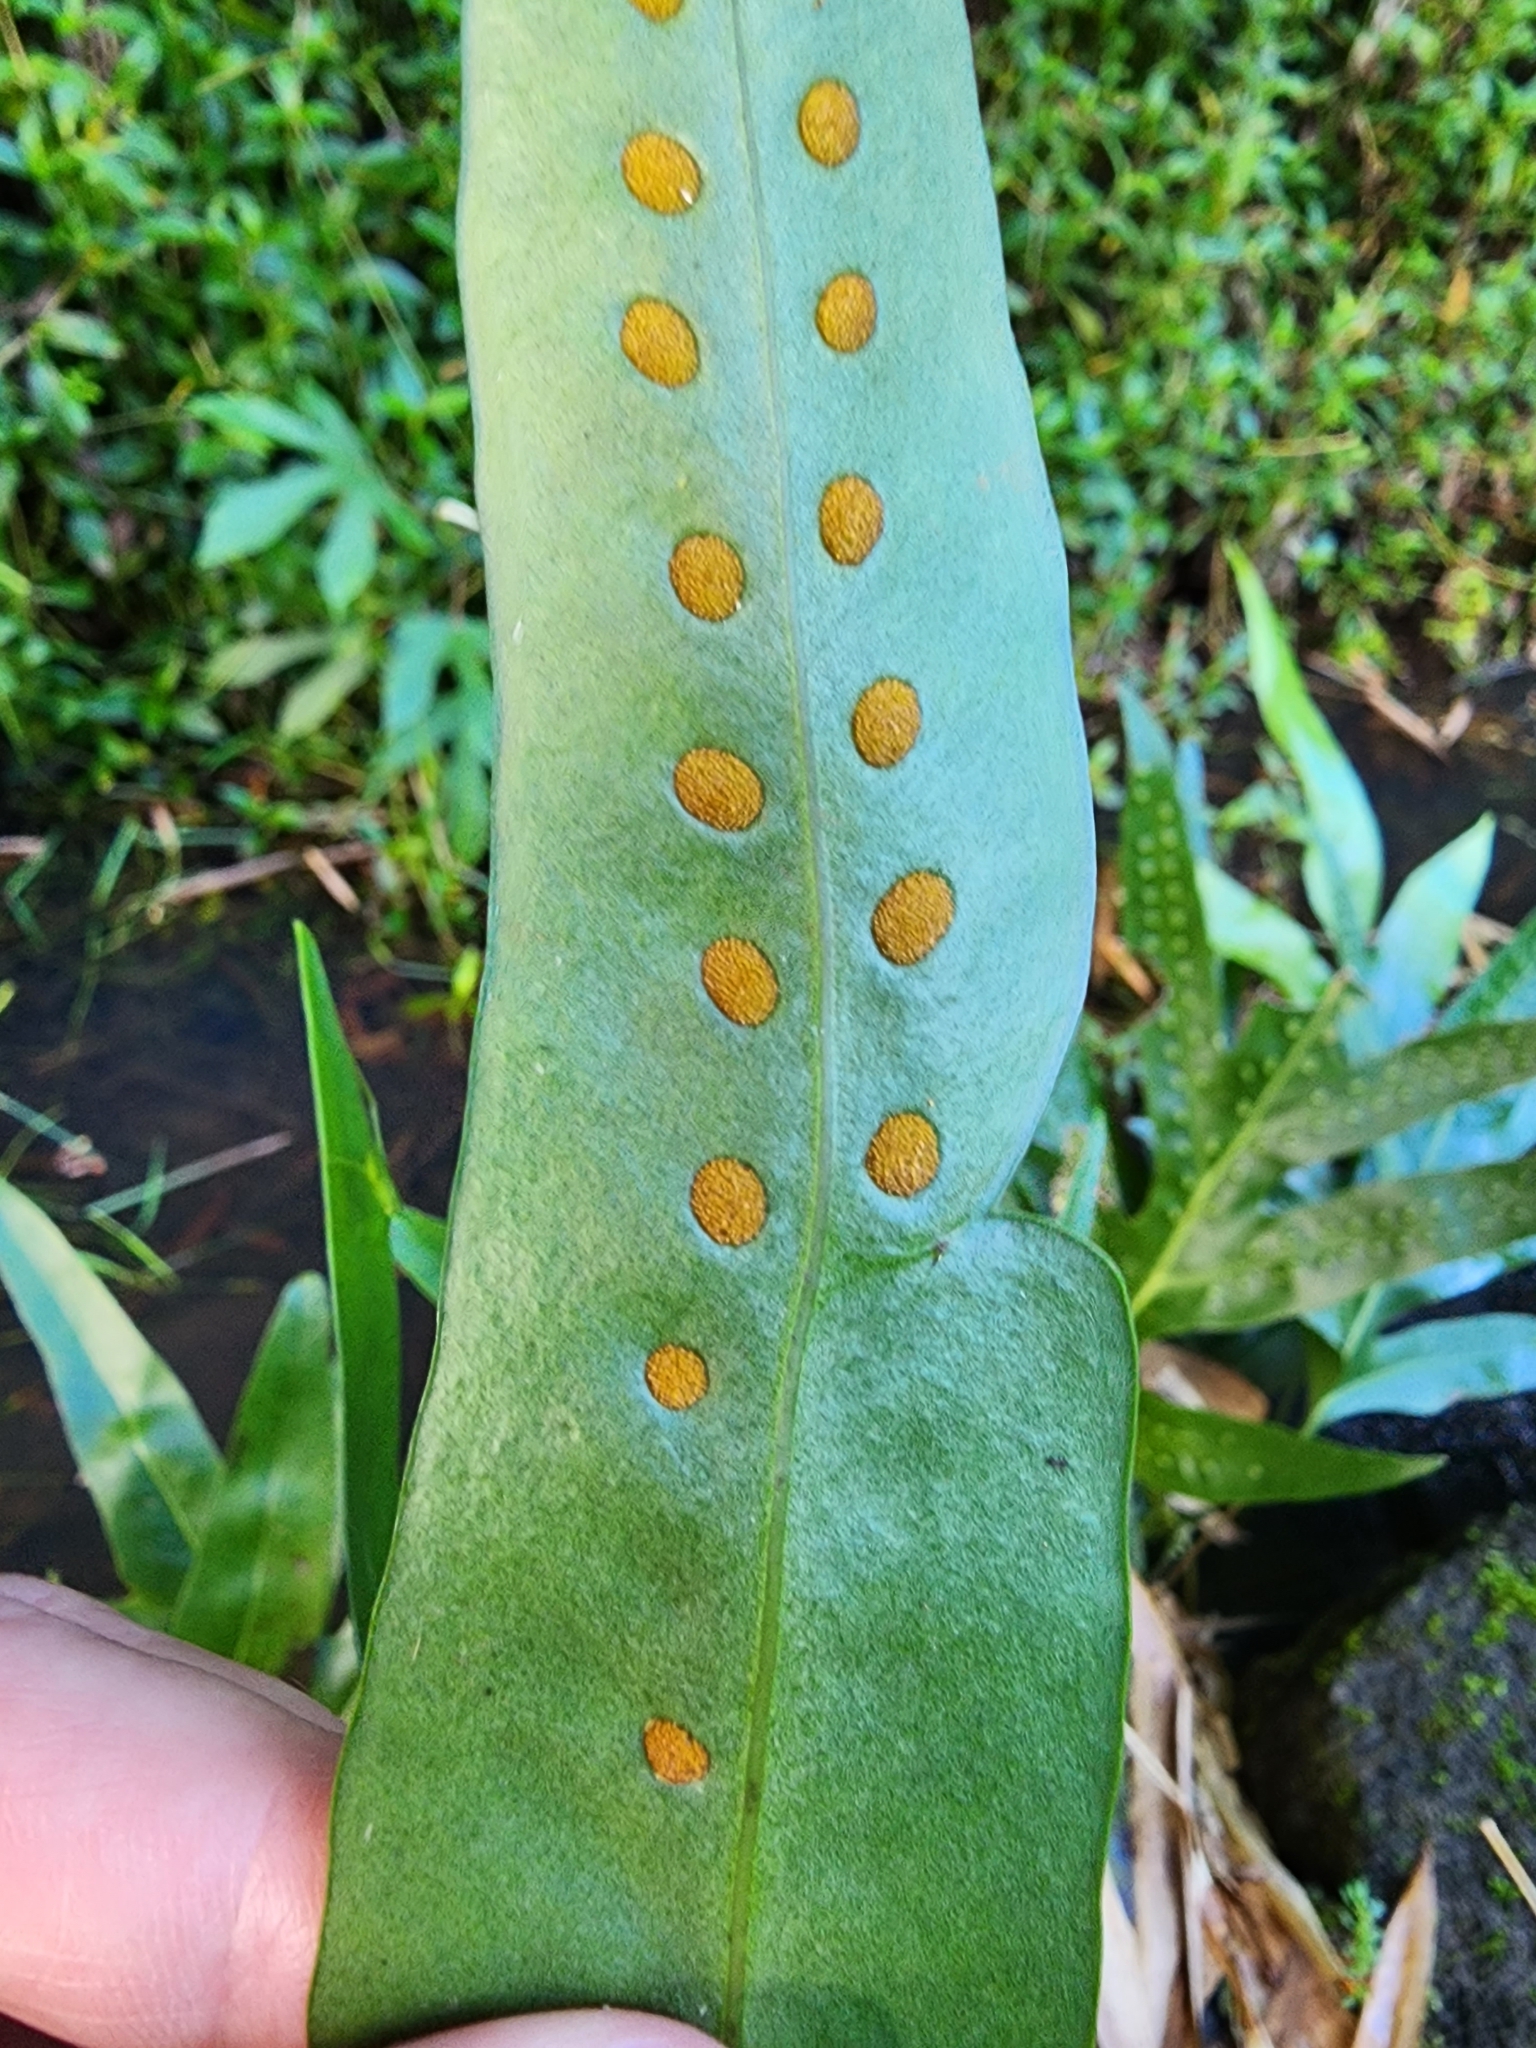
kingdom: Plantae
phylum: Tracheophyta
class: Polypodiopsida
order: Polypodiales
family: Polypodiaceae
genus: Microsorum
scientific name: Microsorum grossum
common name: Musk fern
